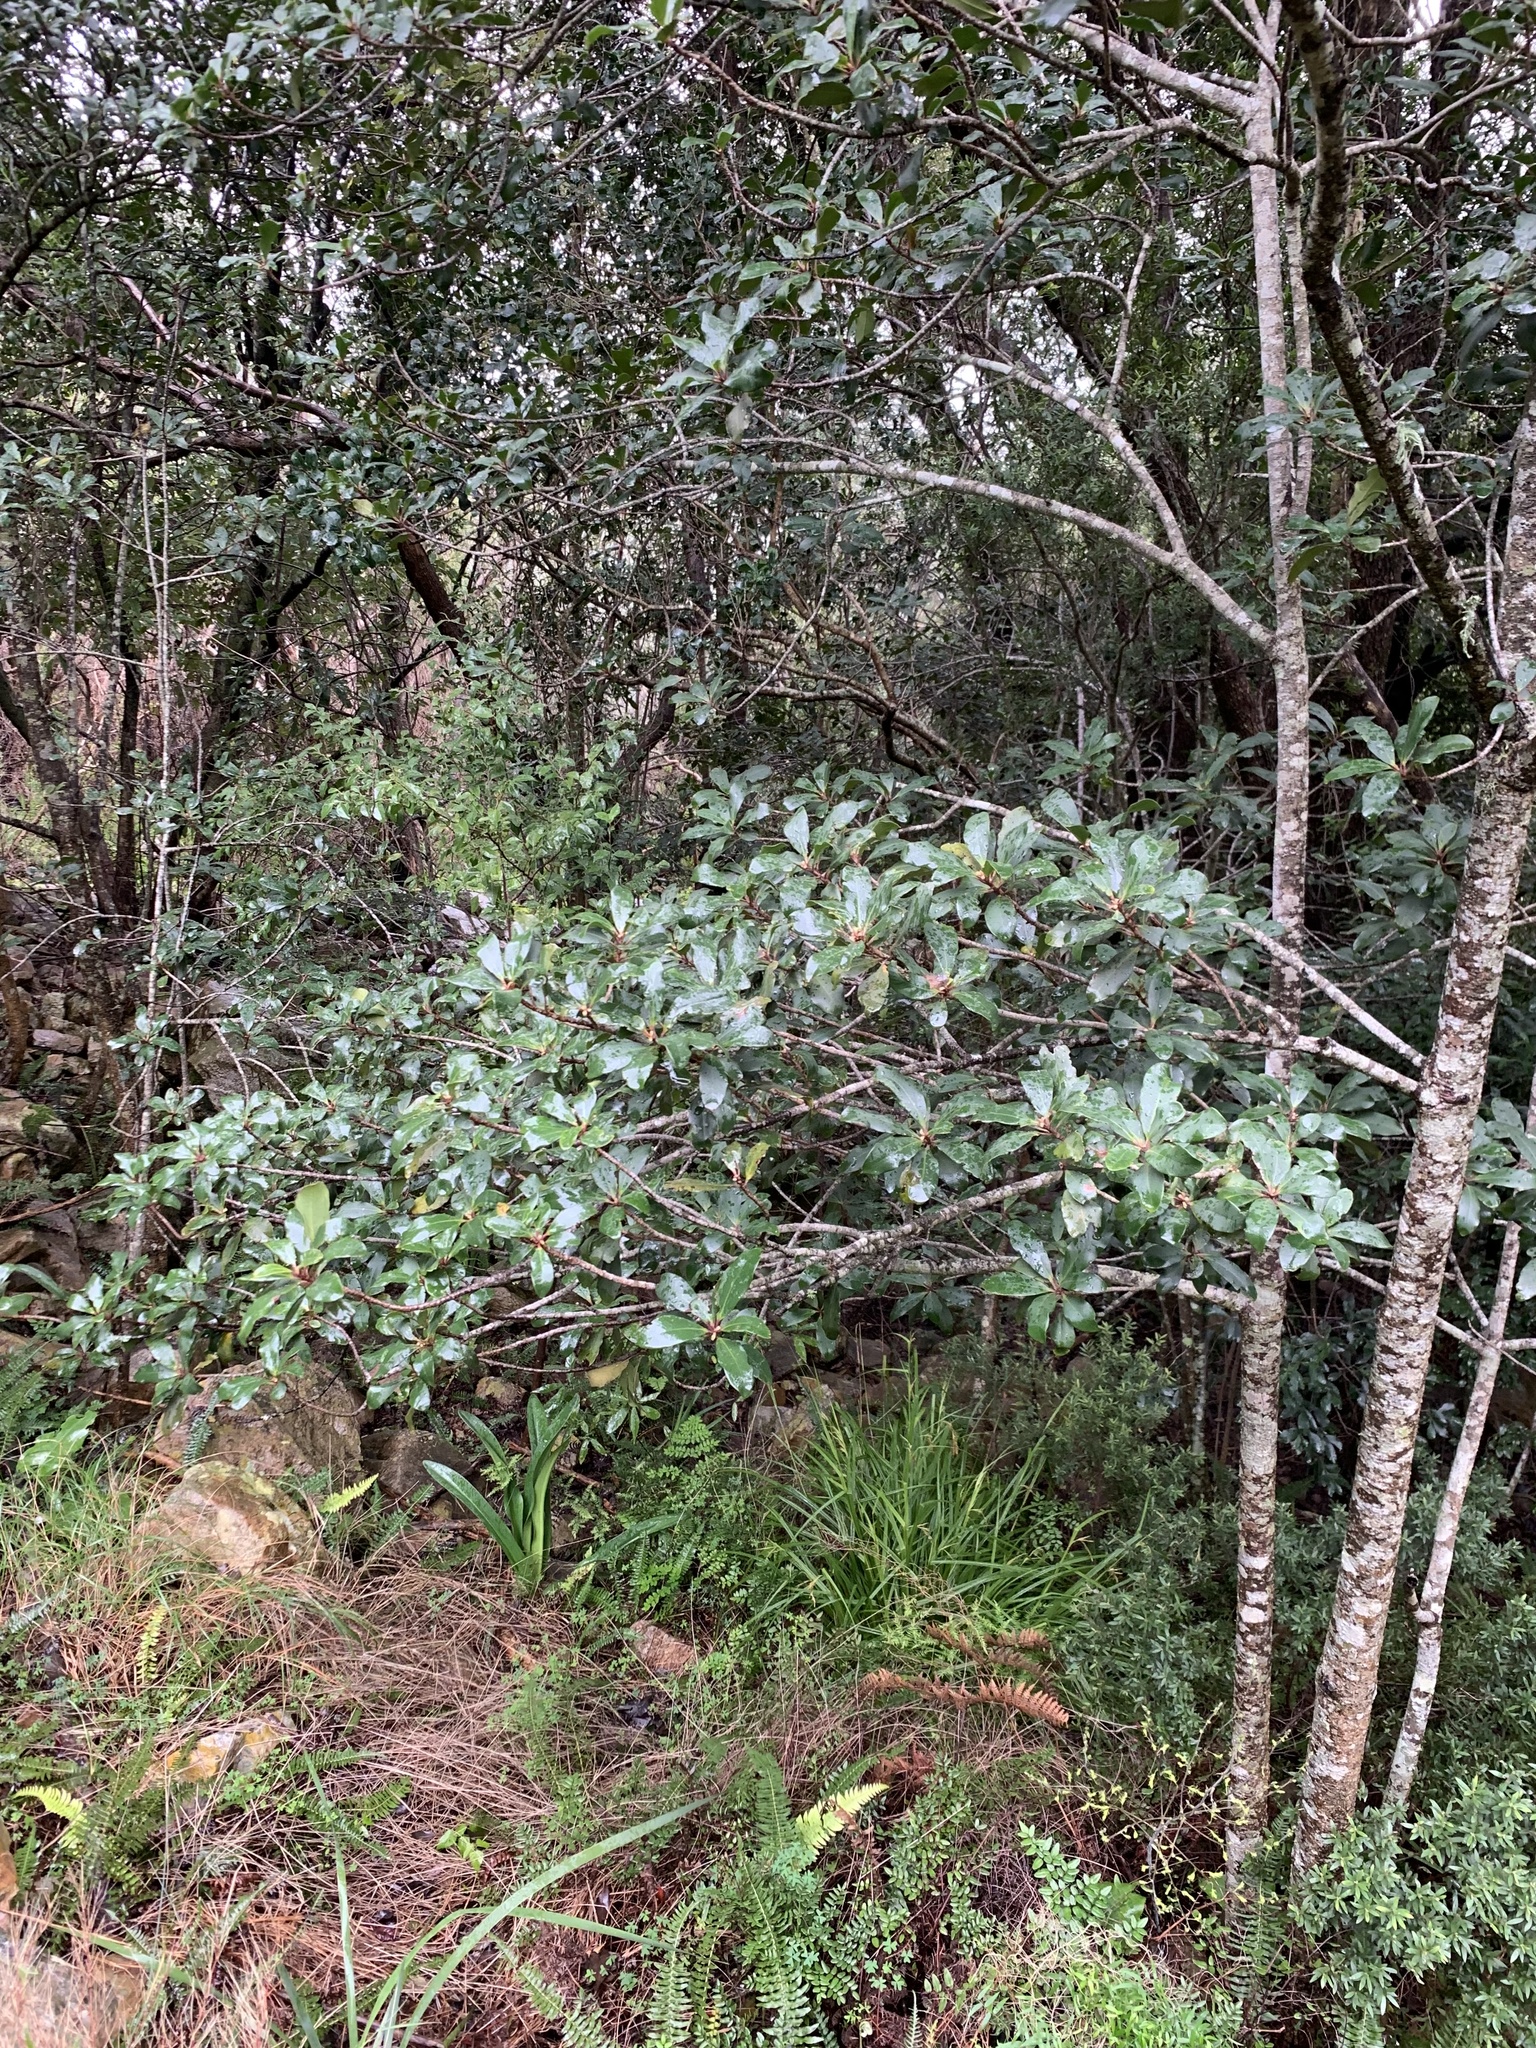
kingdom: Plantae
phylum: Tracheophyta
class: Magnoliopsida
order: Ericales
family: Primulaceae
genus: Myrsine
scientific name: Myrsine melanophloeos
